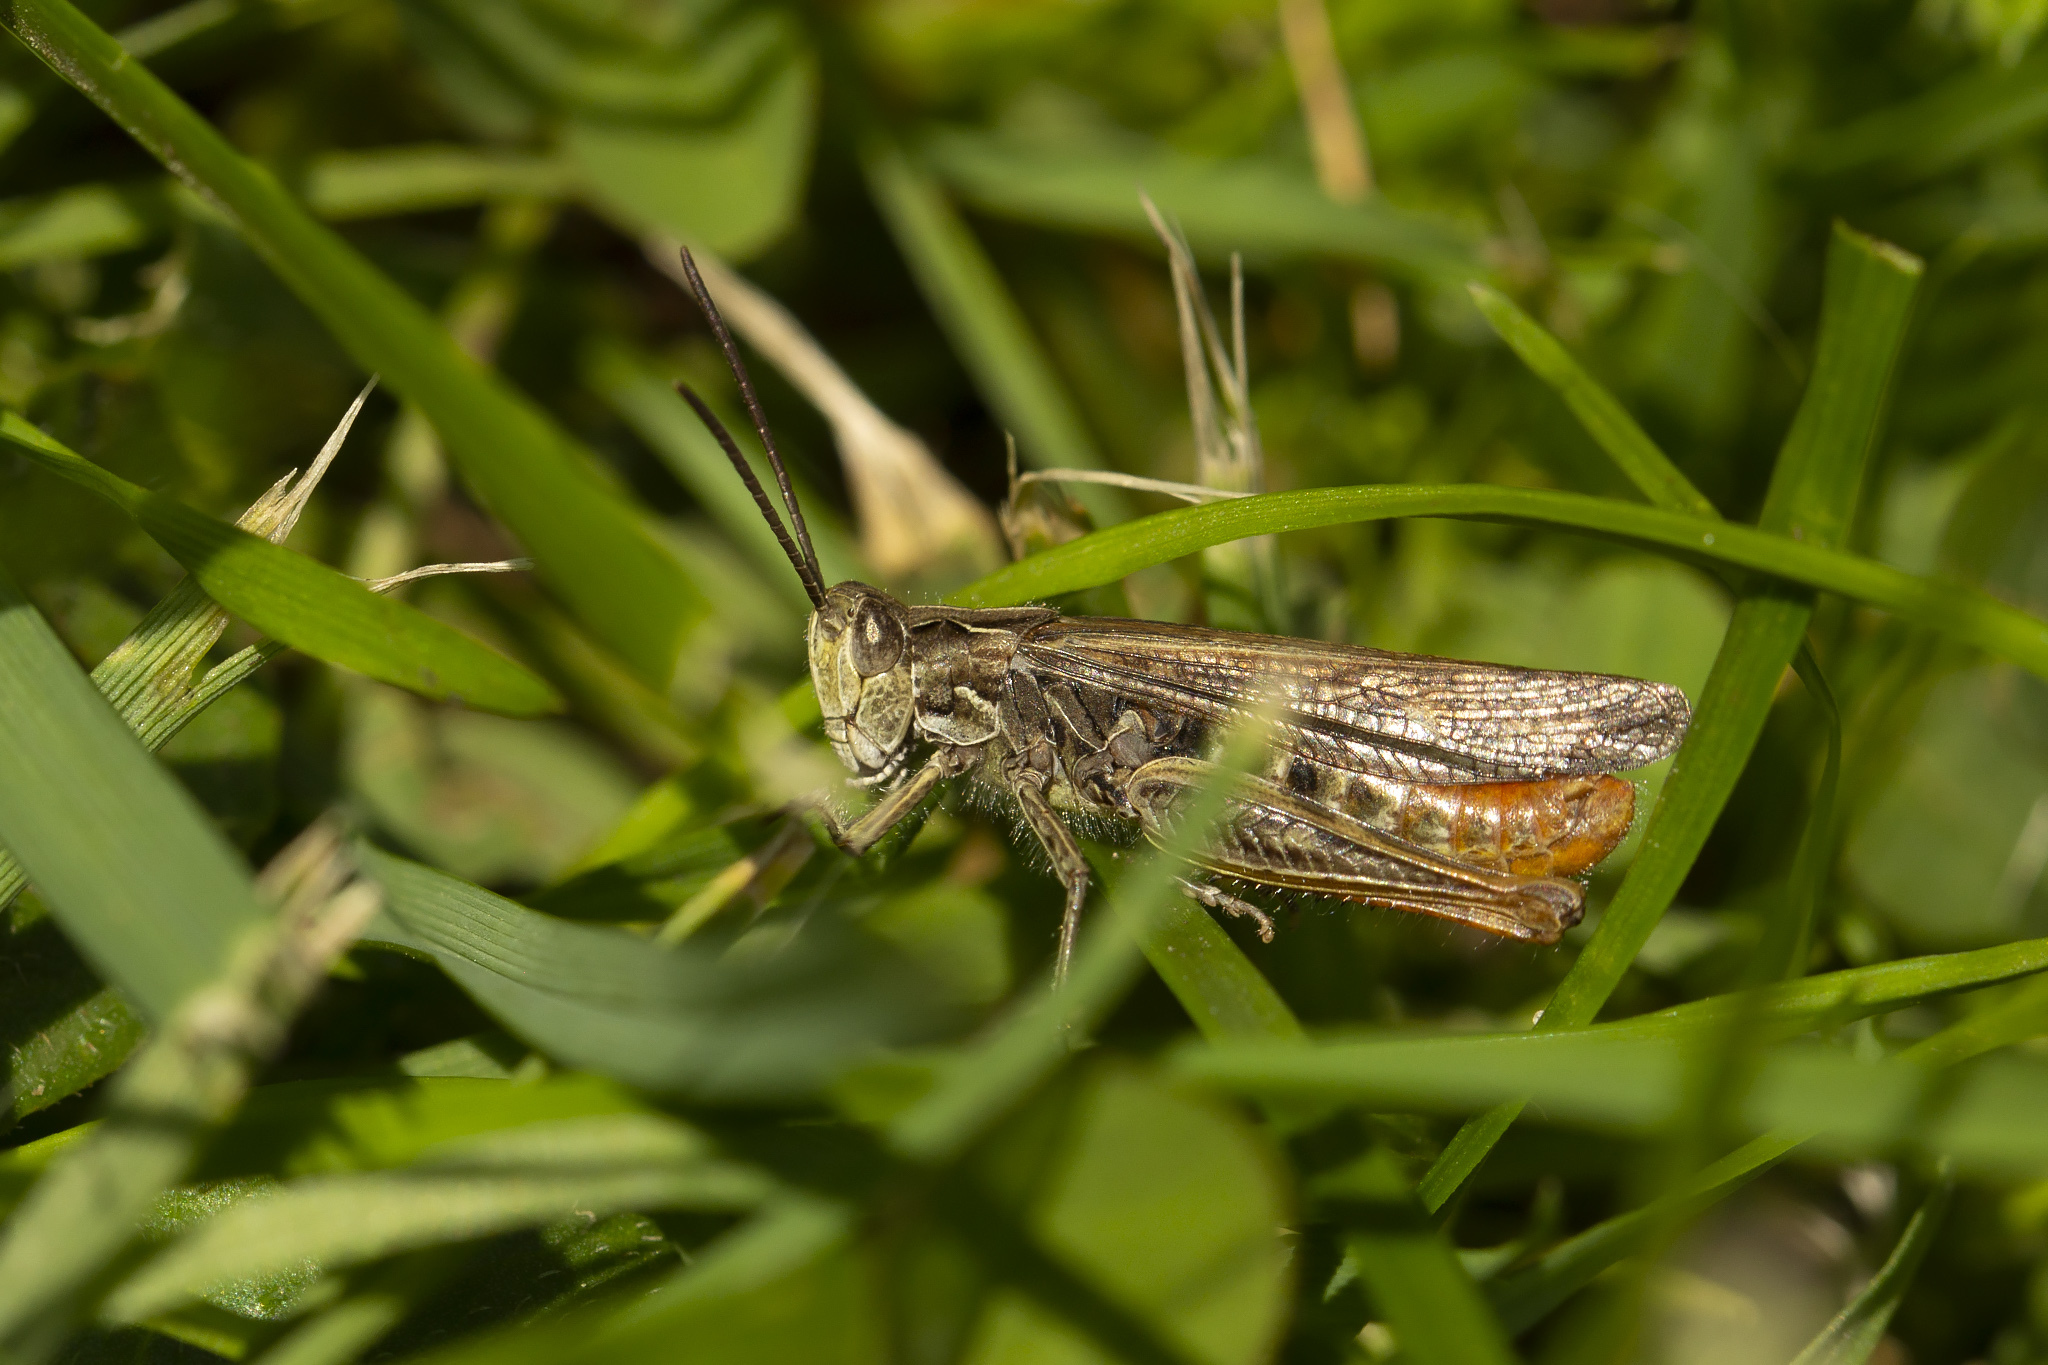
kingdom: Animalia
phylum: Arthropoda
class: Insecta
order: Orthoptera
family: Acrididae
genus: Chorthippus
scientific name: Chorthippus brunneus
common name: Field grasshopper
